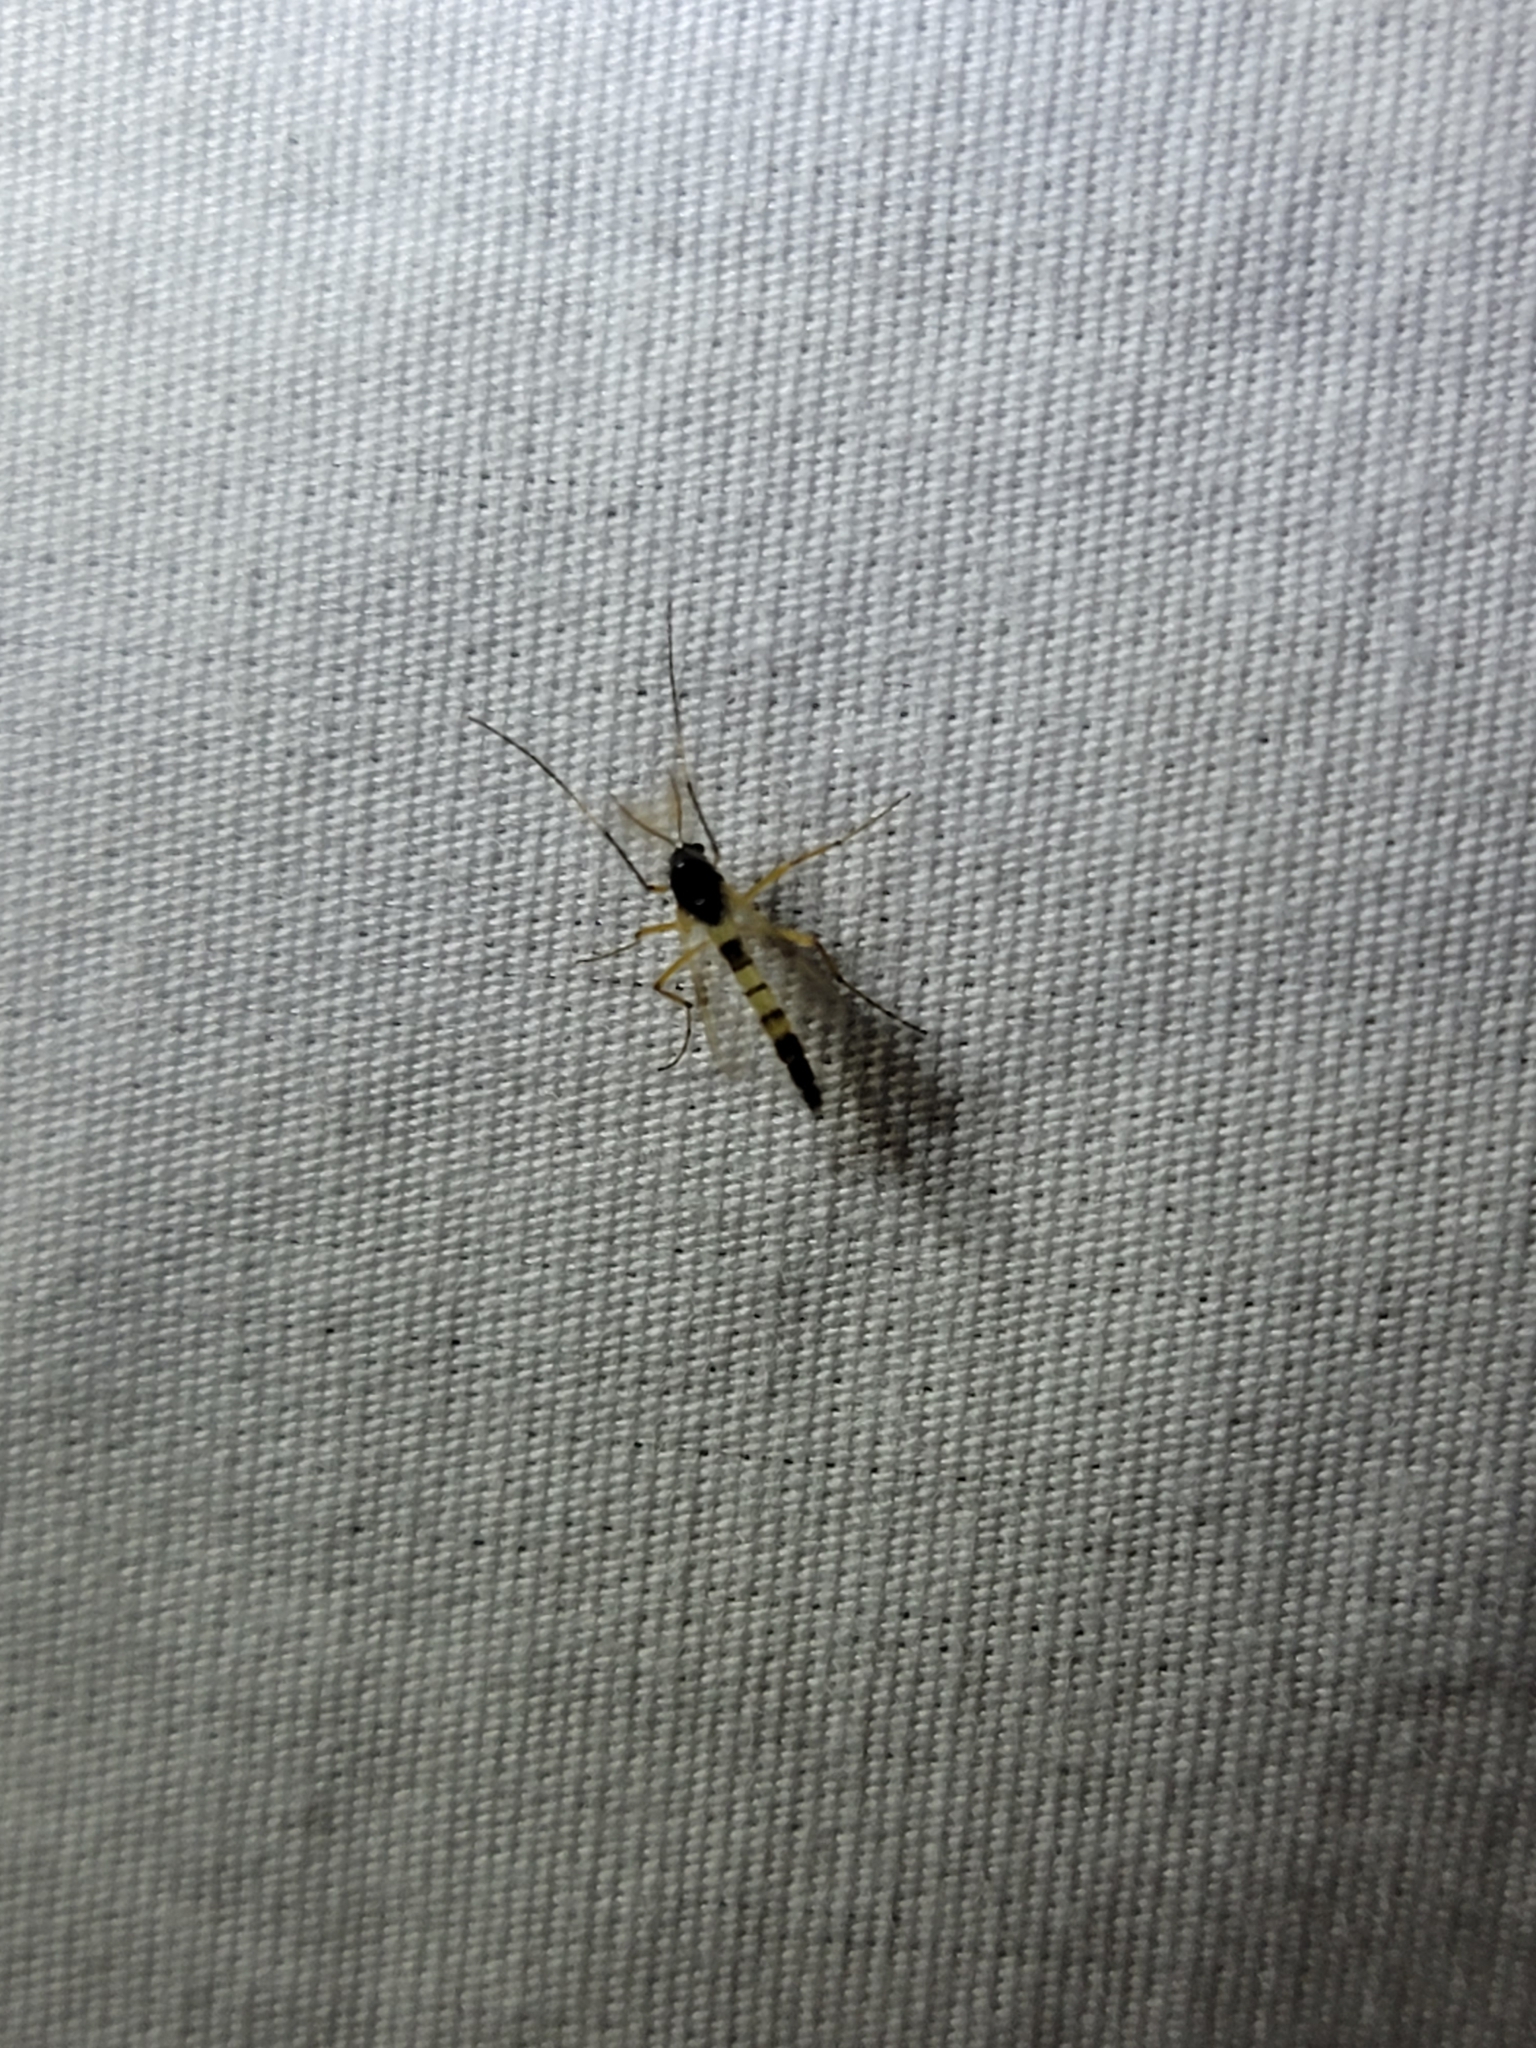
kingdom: Animalia
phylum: Arthropoda
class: Insecta
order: Diptera
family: Chironomidae
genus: Demeijerea
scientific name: Demeijerea brachialis
